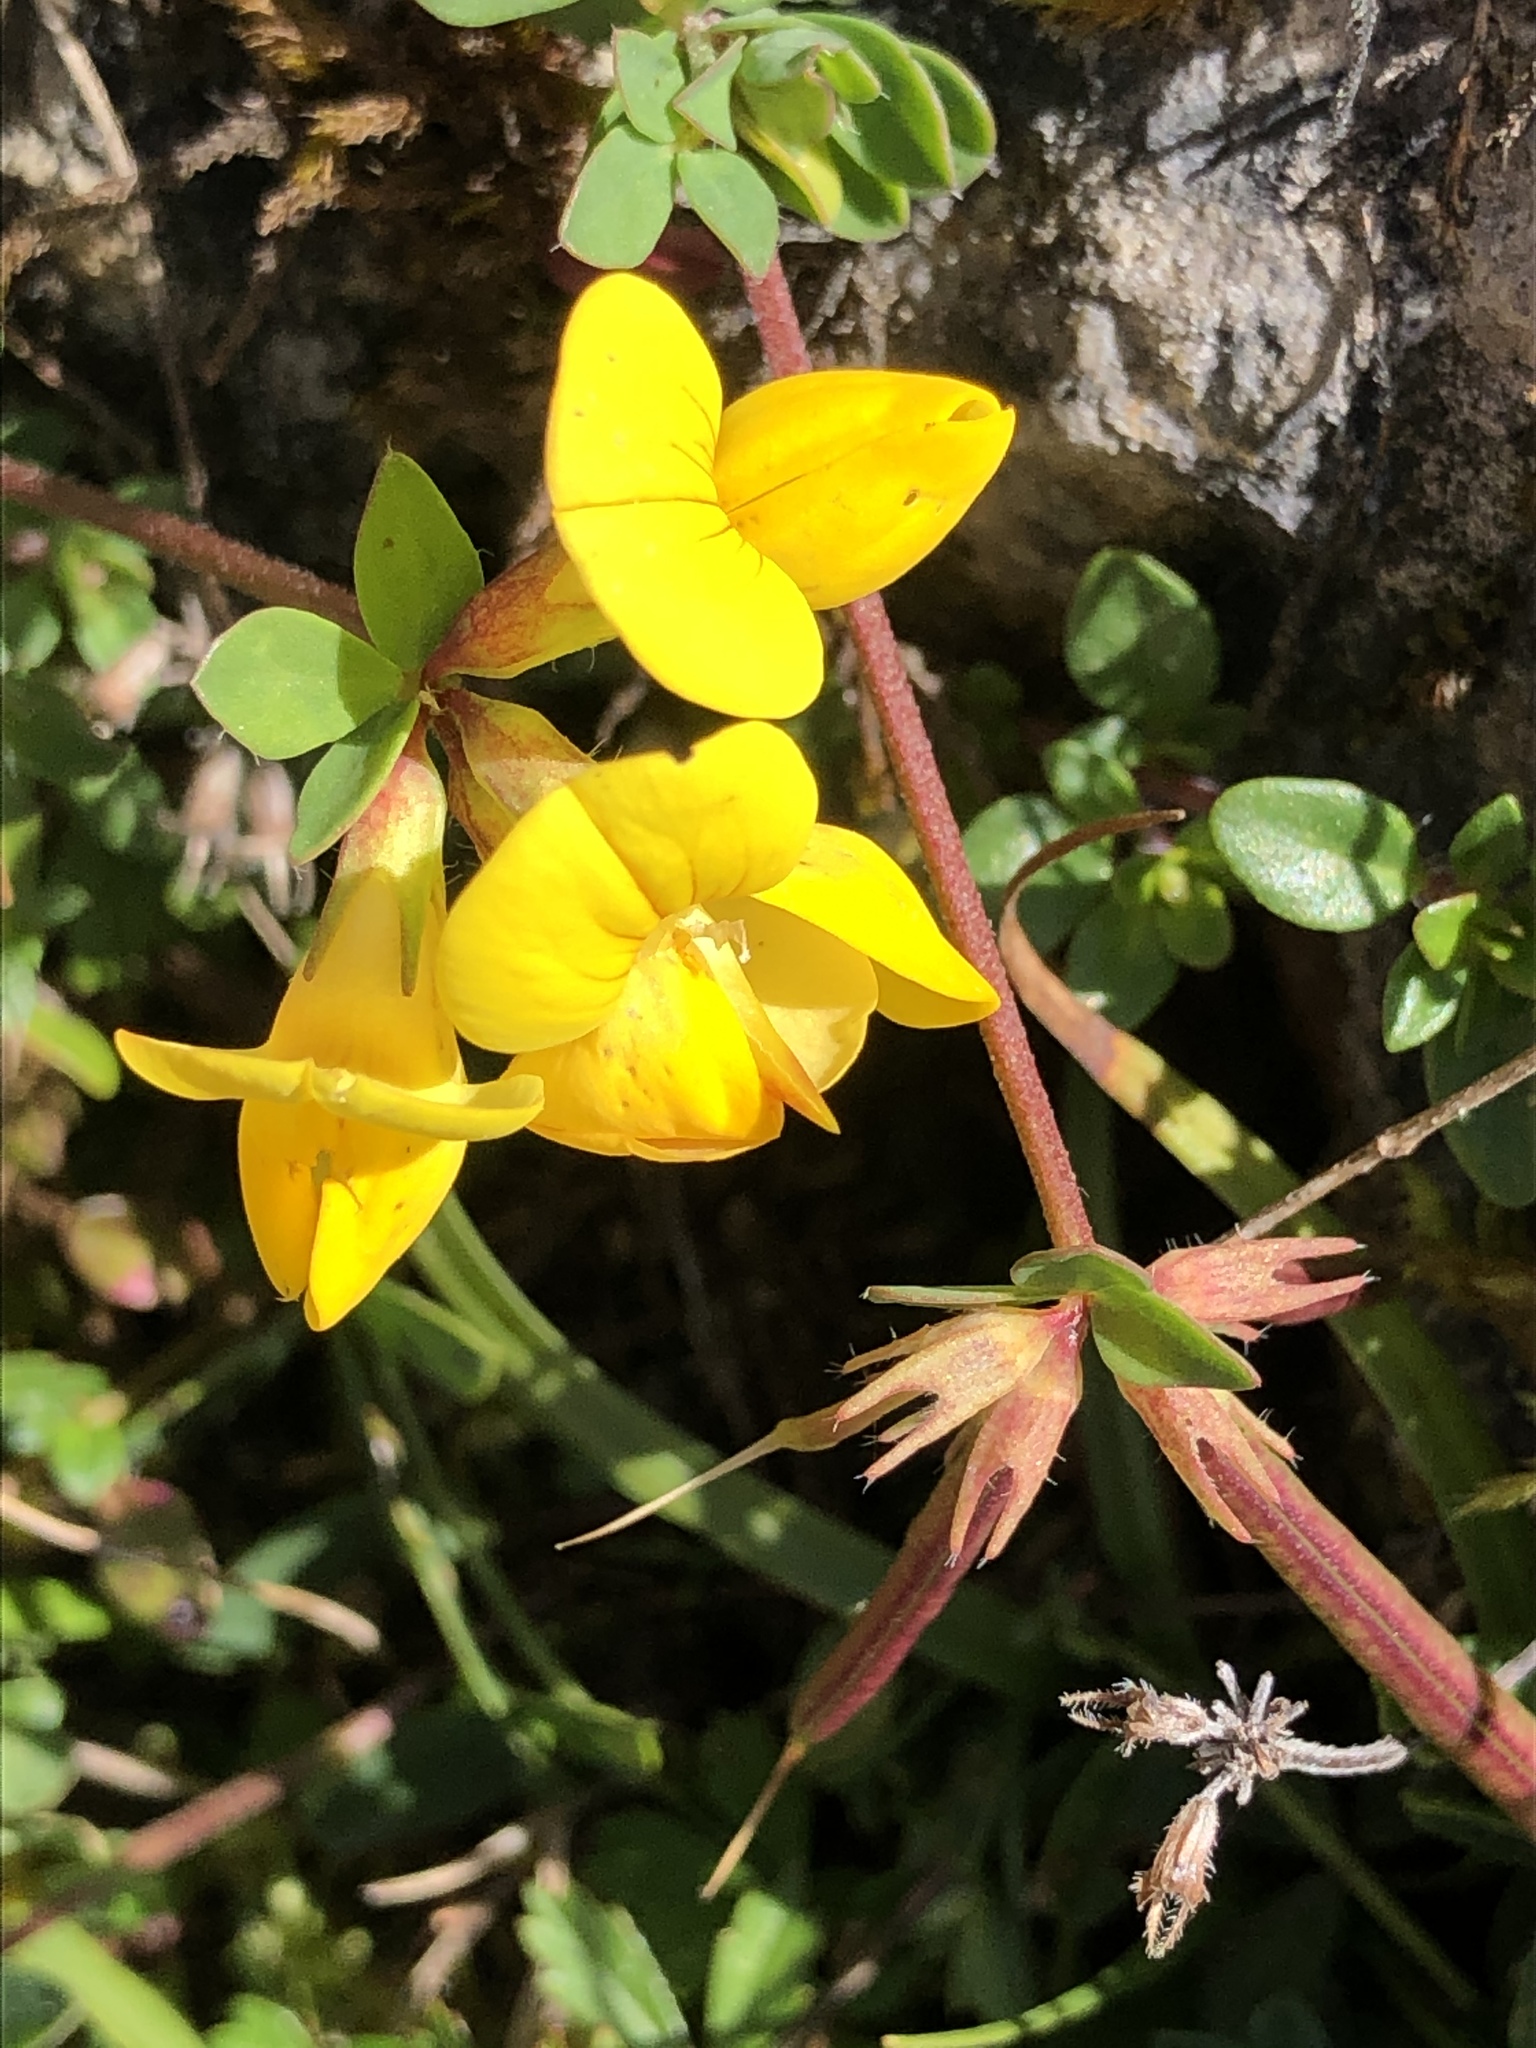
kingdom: Plantae
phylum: Tracheophyta
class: Magnoliopsida
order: Fabales
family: Fabaceae
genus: Lotus
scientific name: Lotus corniculatus
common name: Common bird's-foot-trefoil
